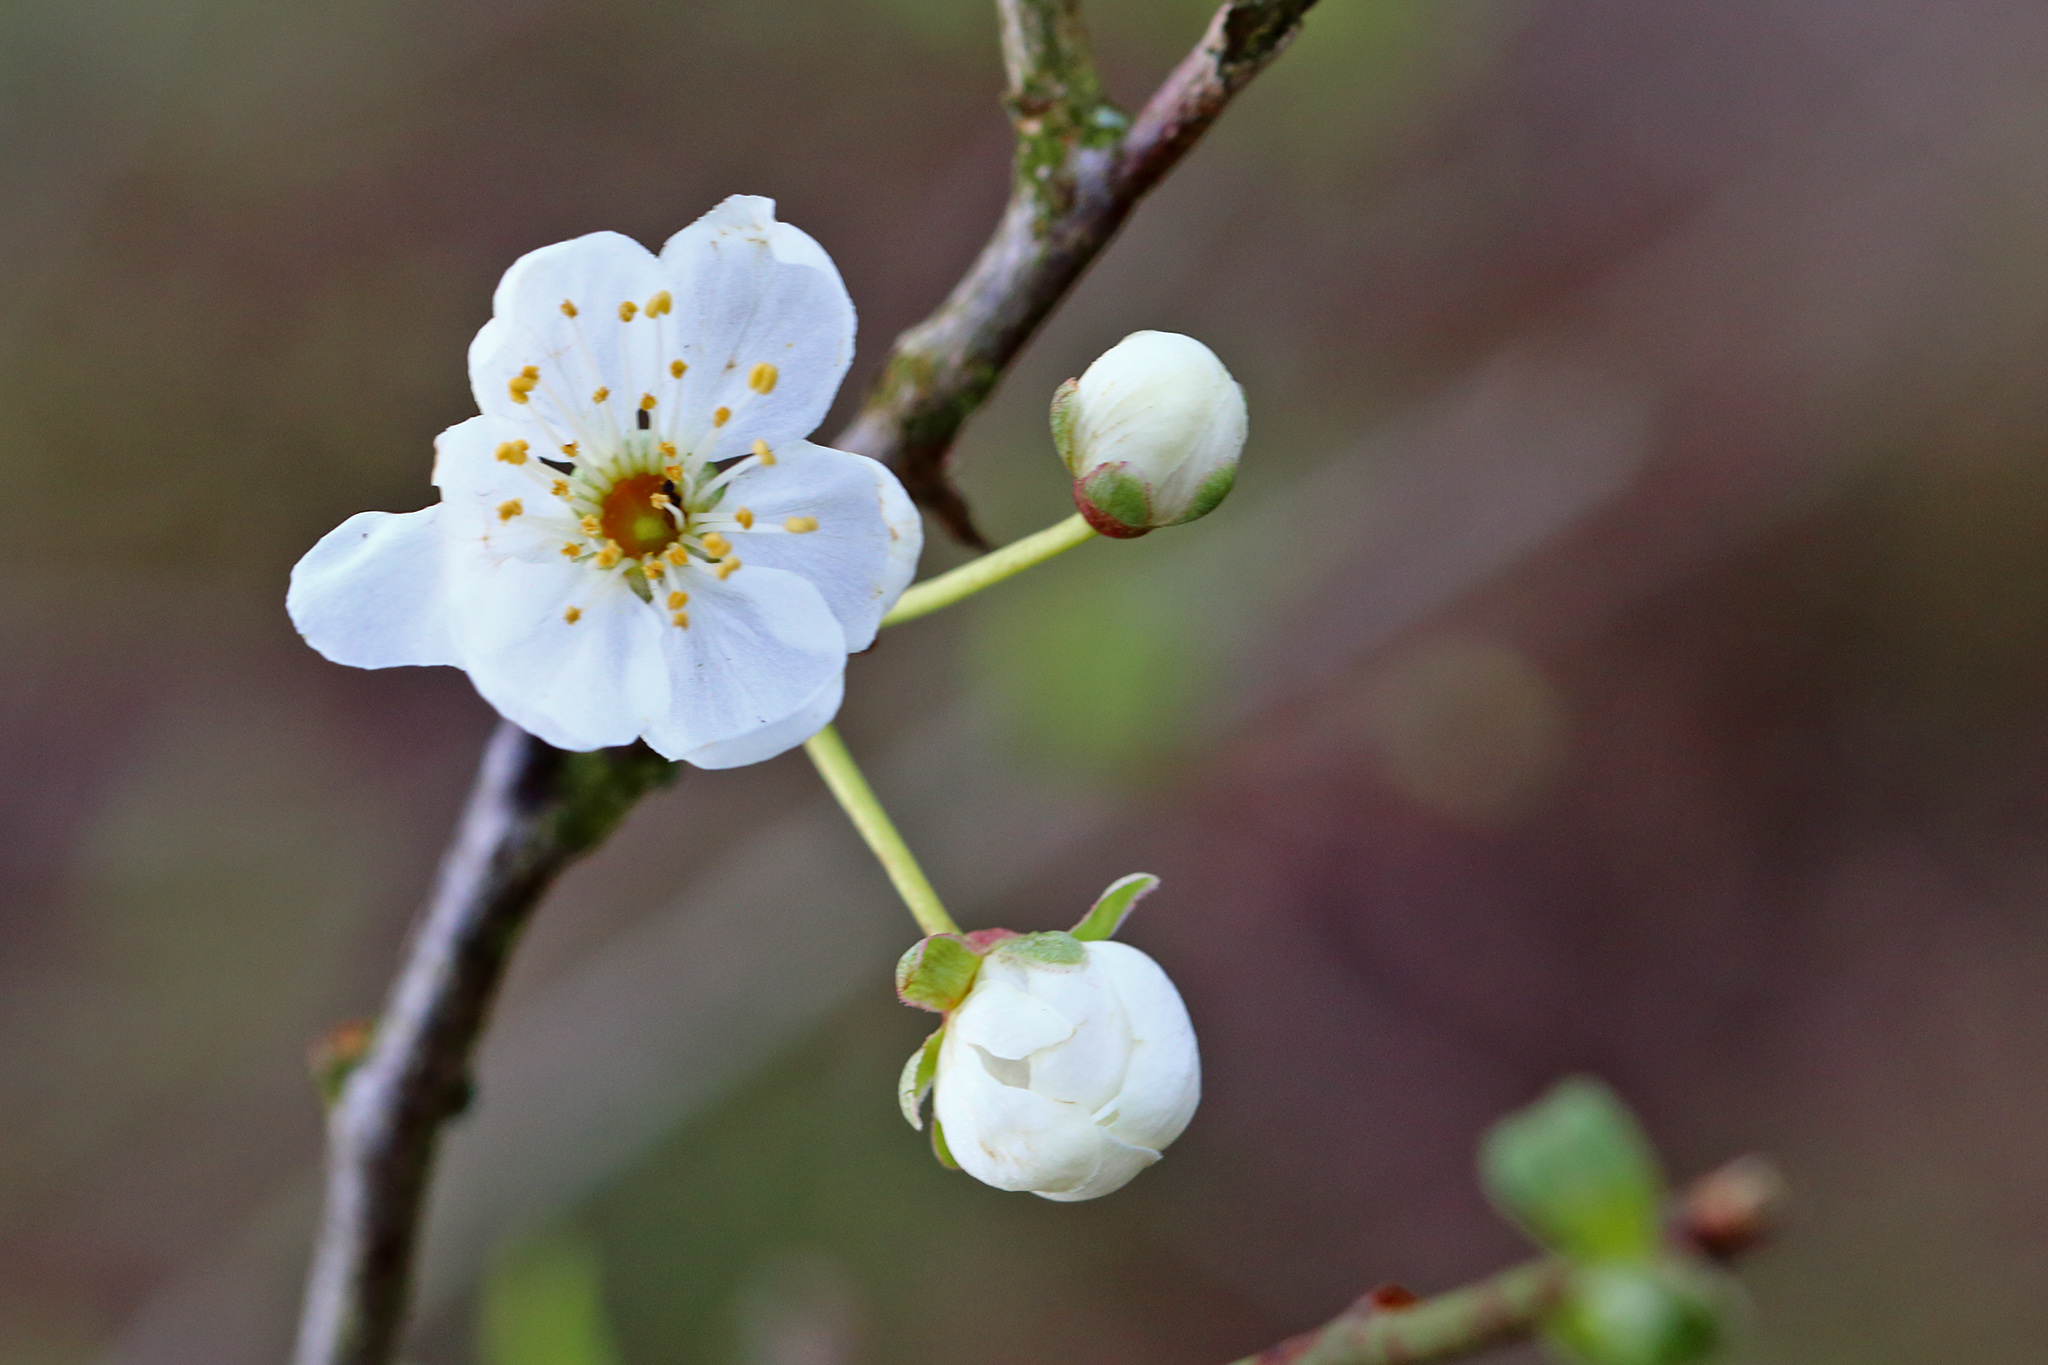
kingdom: Plantae
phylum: Tracheophyta
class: Magnoliopsida
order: Rosales
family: Rosaceae
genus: Prunus
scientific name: Prunus cerasifera
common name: Cherry plum
